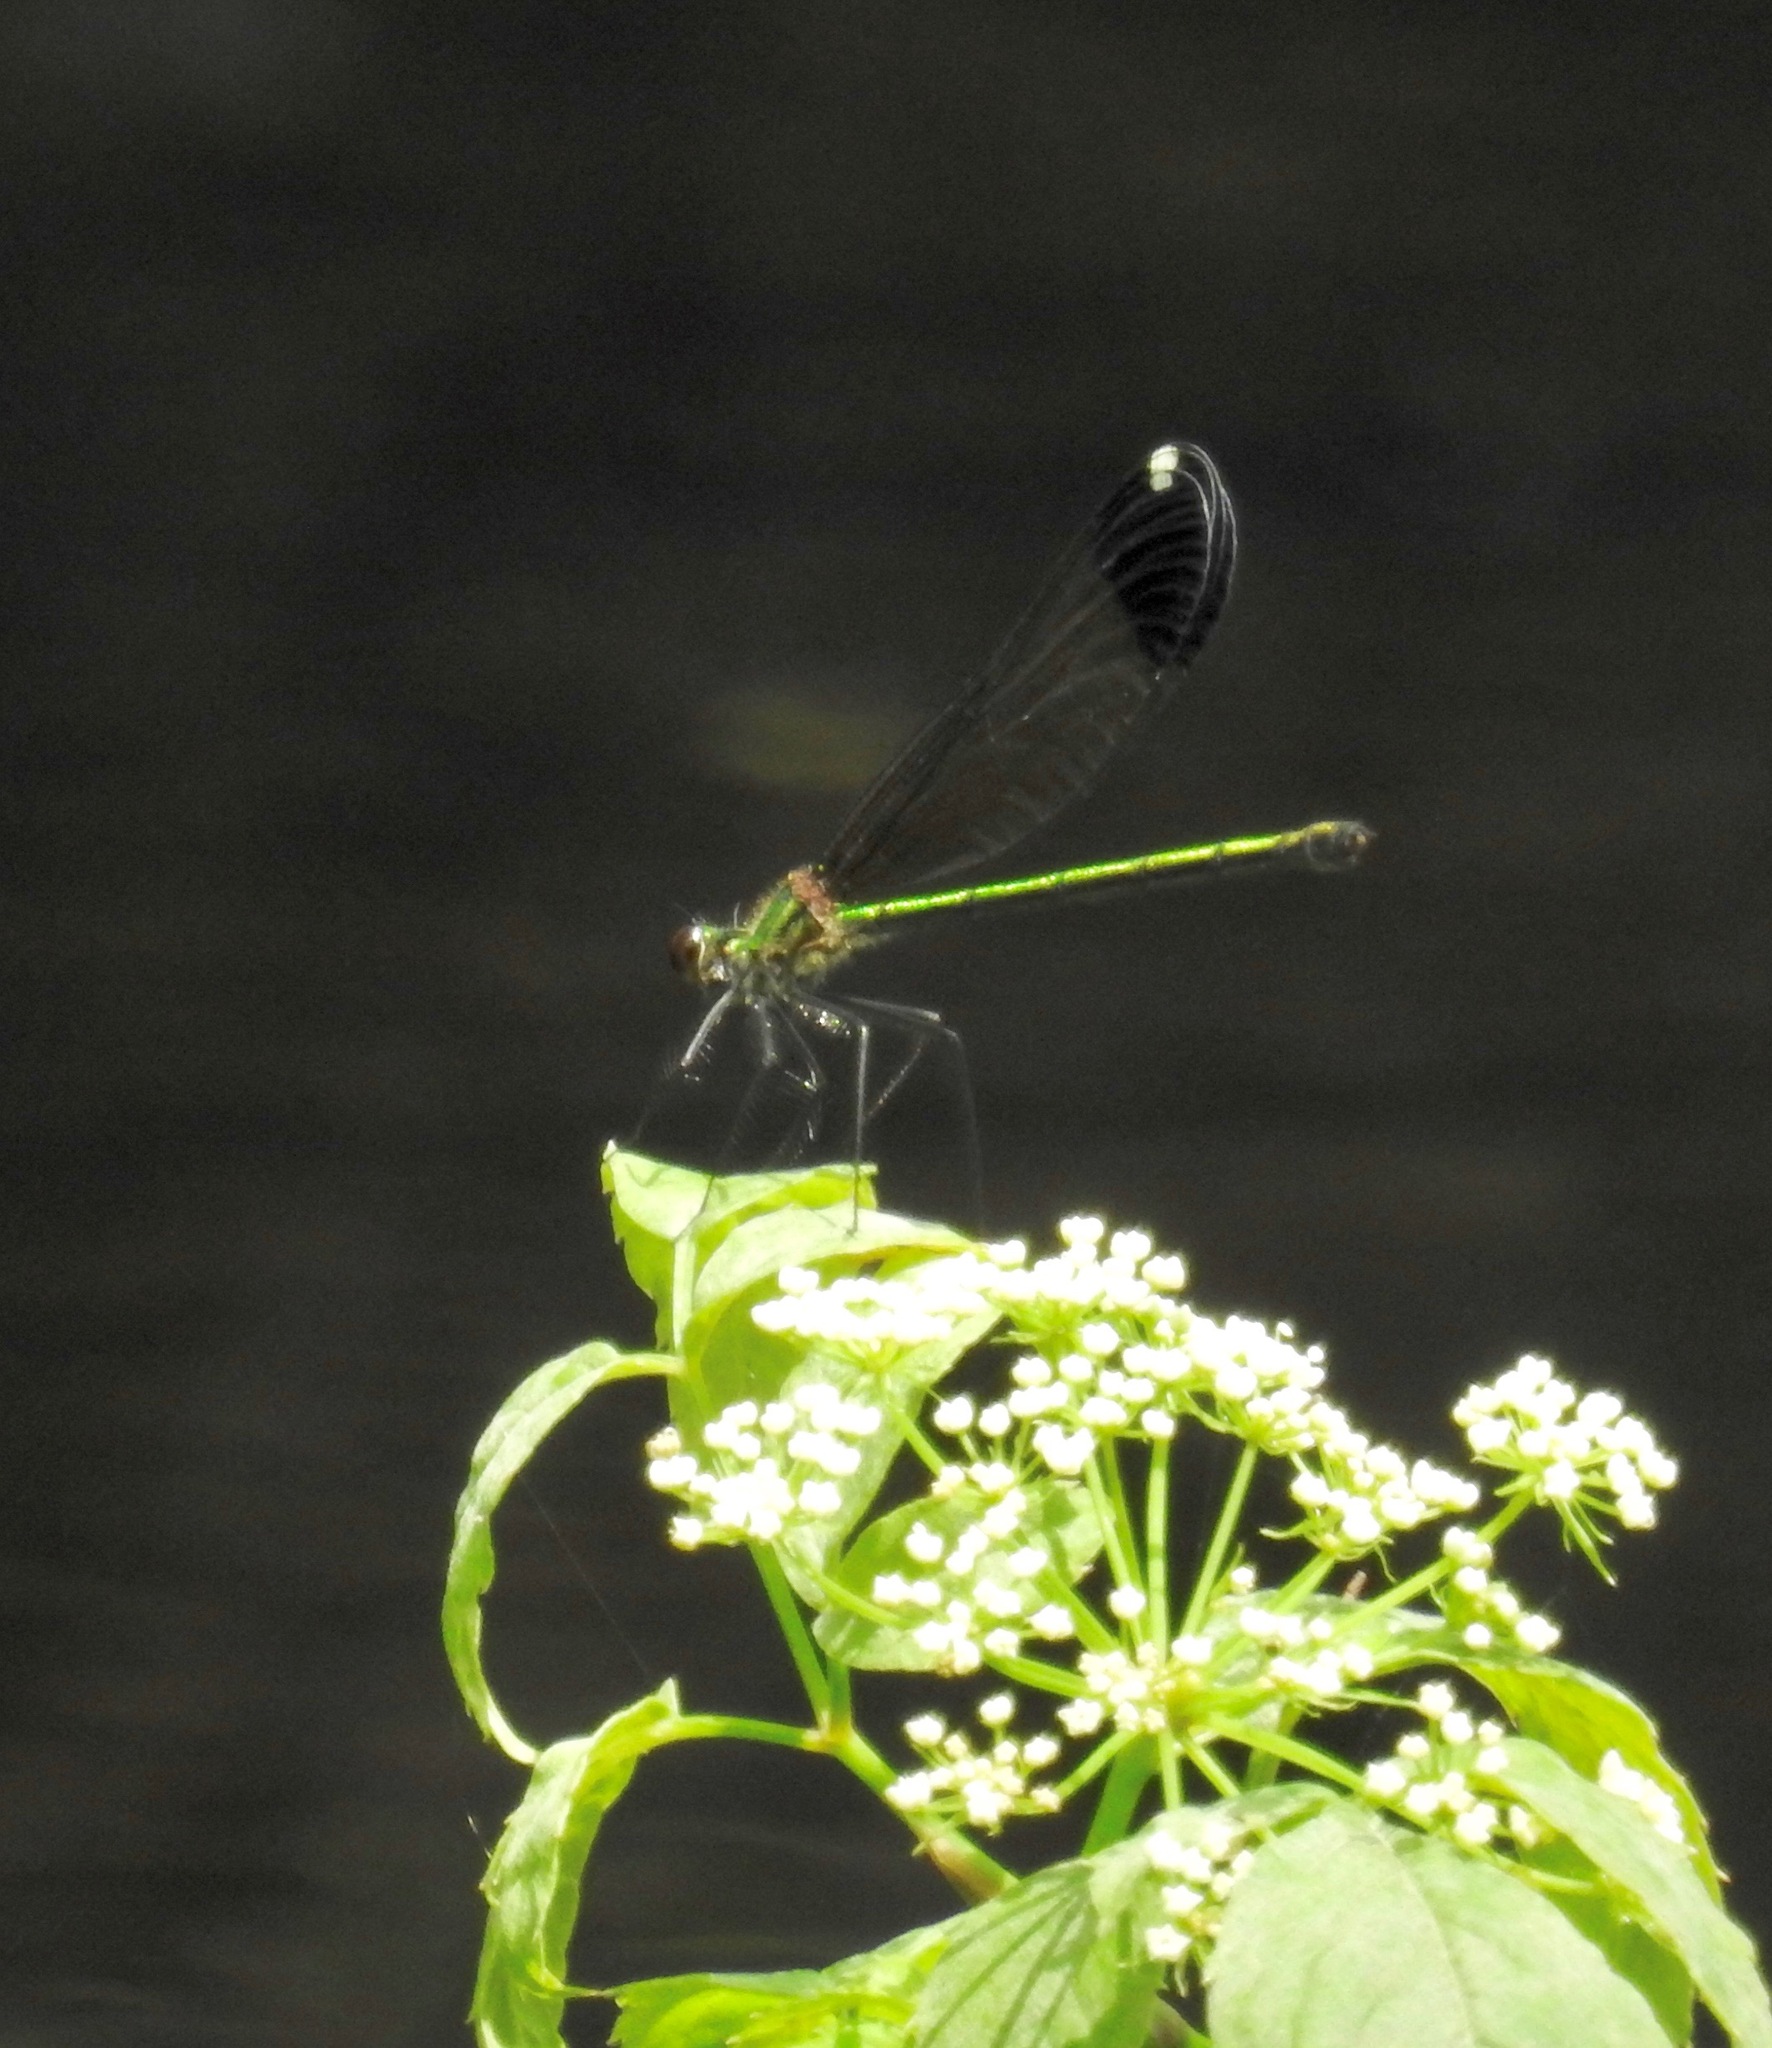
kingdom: Animalia
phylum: Arthropoda
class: Insecta
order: Odonata
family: Calopterygidae
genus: Calopteryx
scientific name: Calopteryx dimidiata
